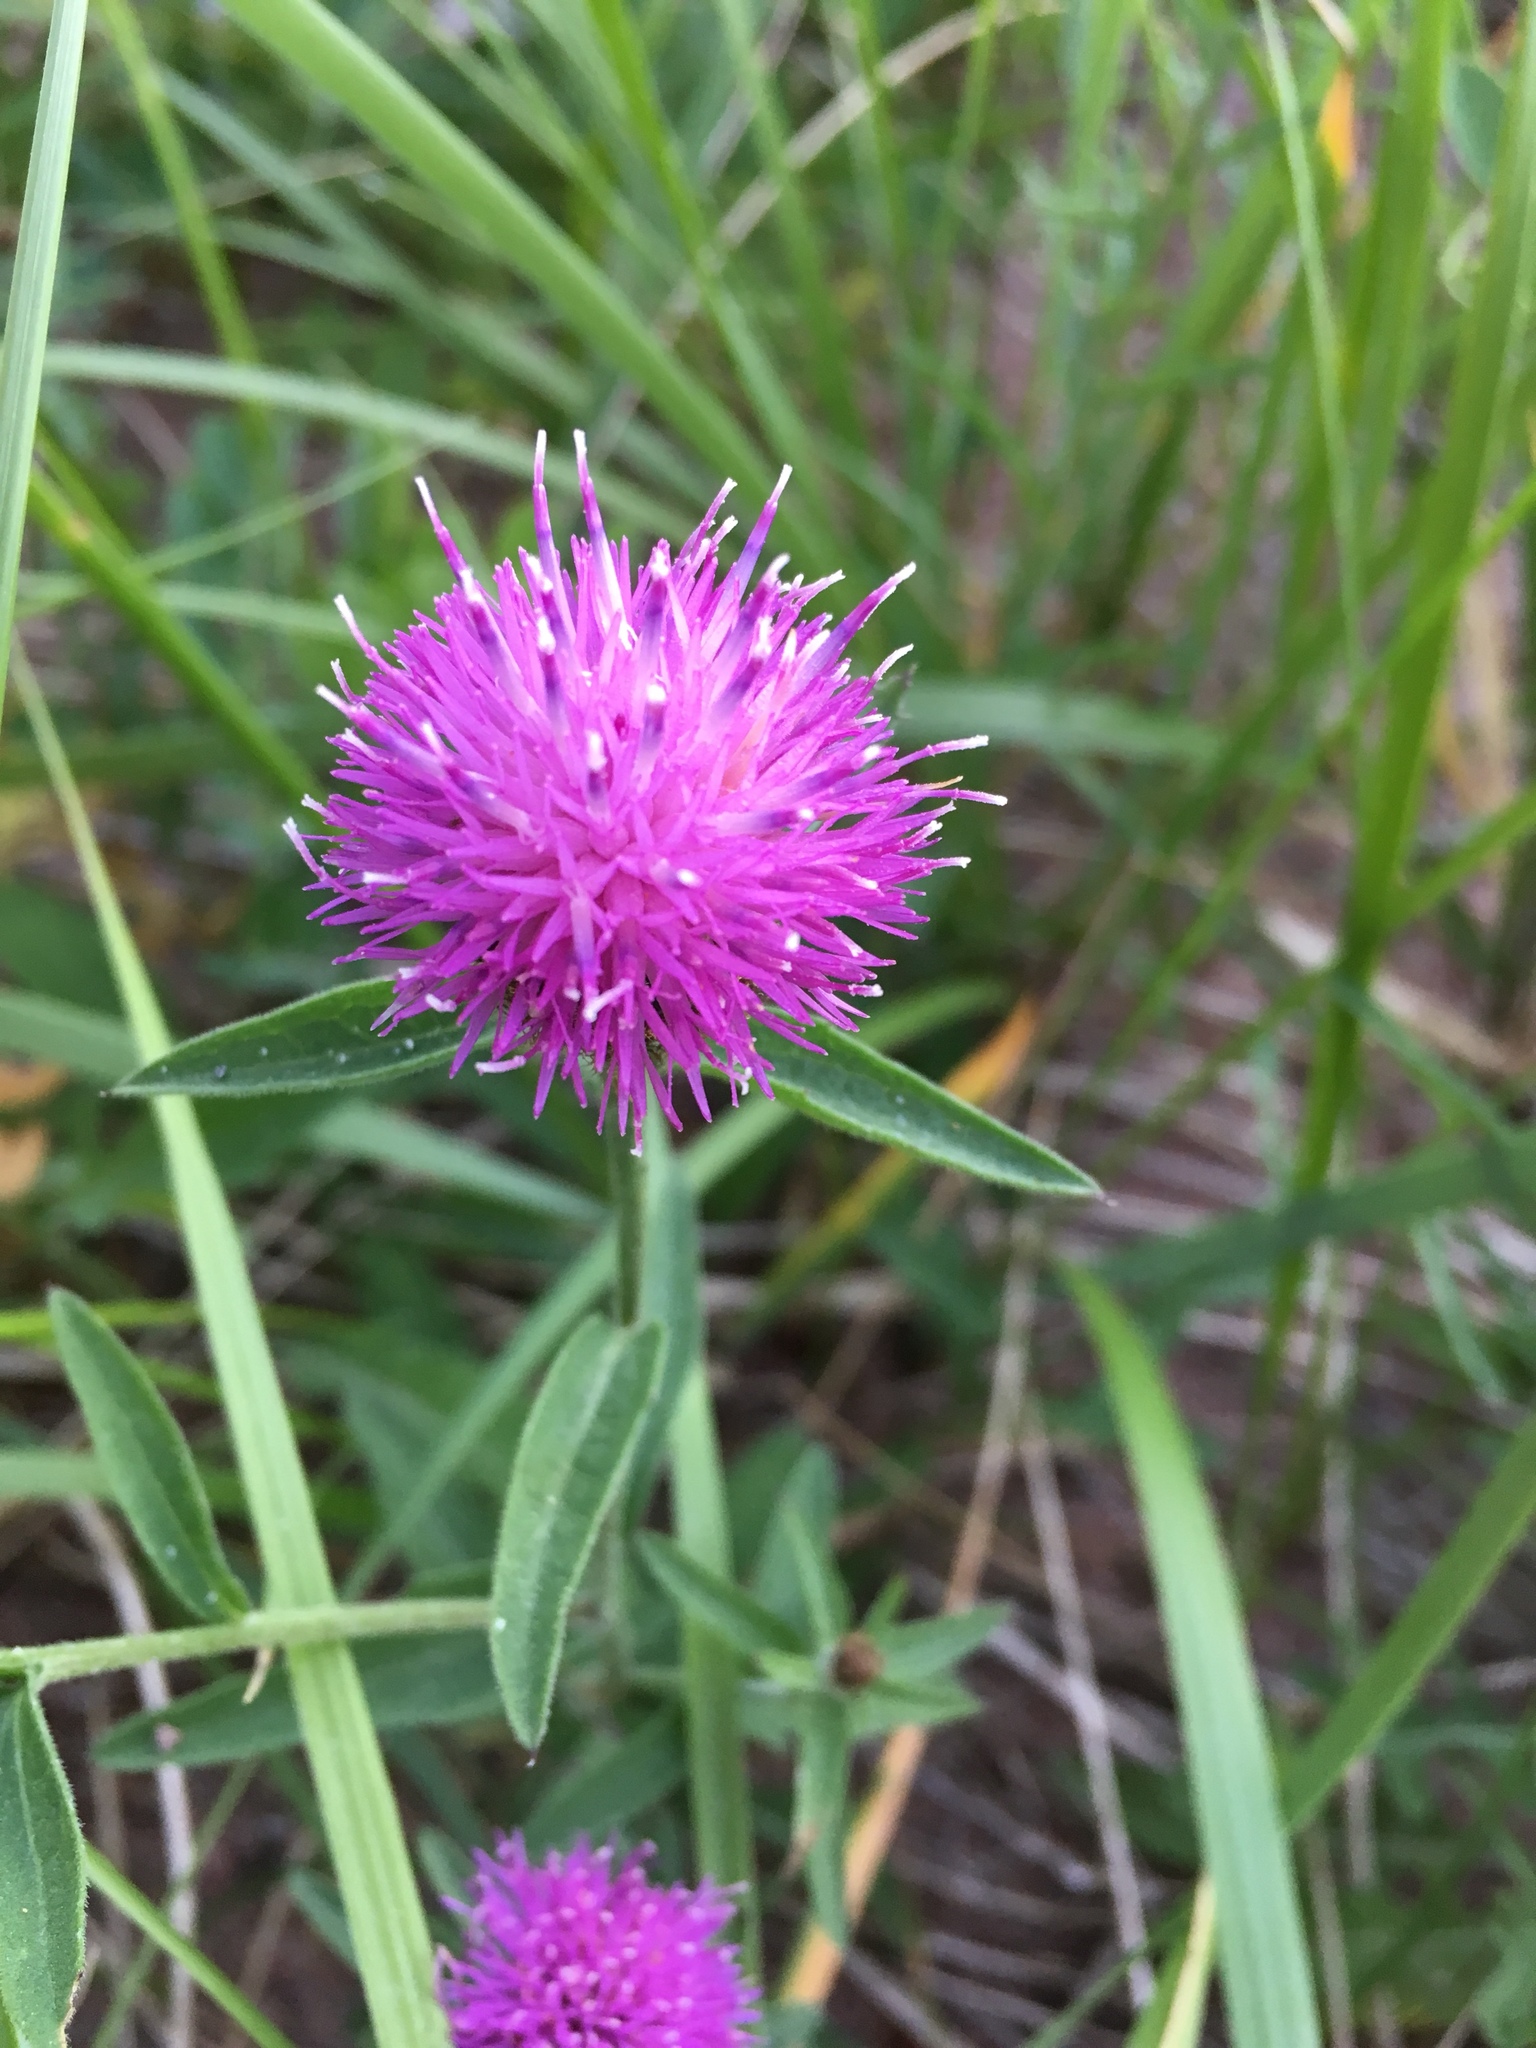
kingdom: Plantae
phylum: Tracheophyta
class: Magnoliopsida
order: Asterales
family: Asteraceae
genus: Centaurea
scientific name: Centaurea nigra
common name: Lesser knapweed
